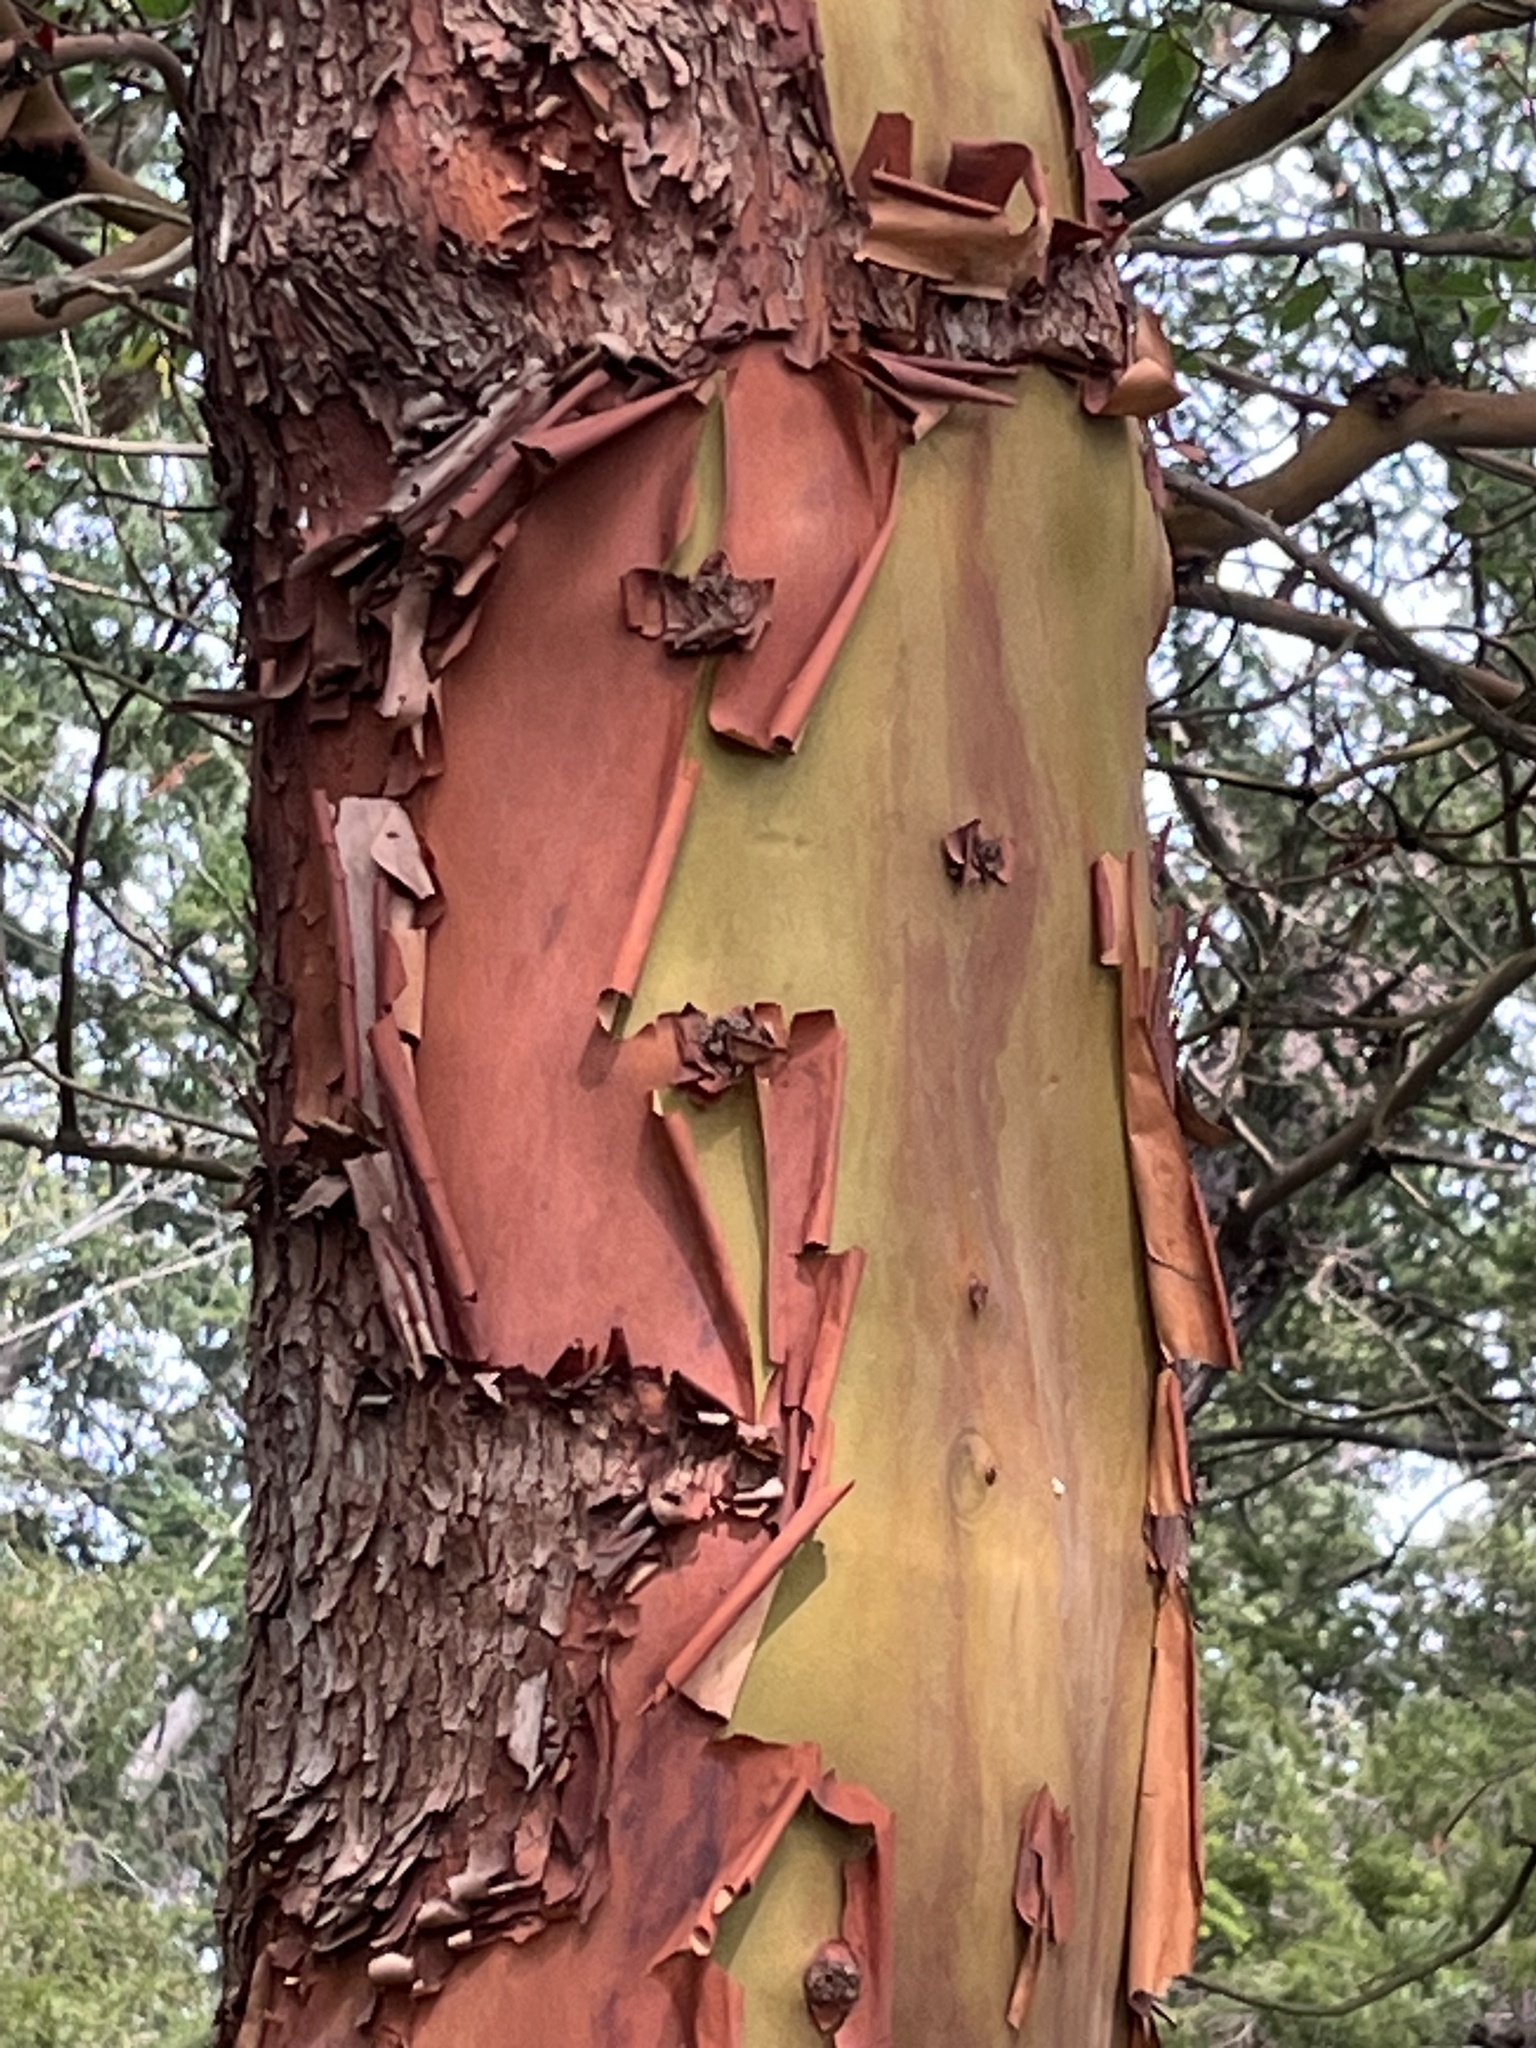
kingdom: Plantae
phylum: Tracheophyta
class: Magnoliopsida
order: Ericales
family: Ericaceae
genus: Arbutus
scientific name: Arbutus menziesii
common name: Pacific madrone
